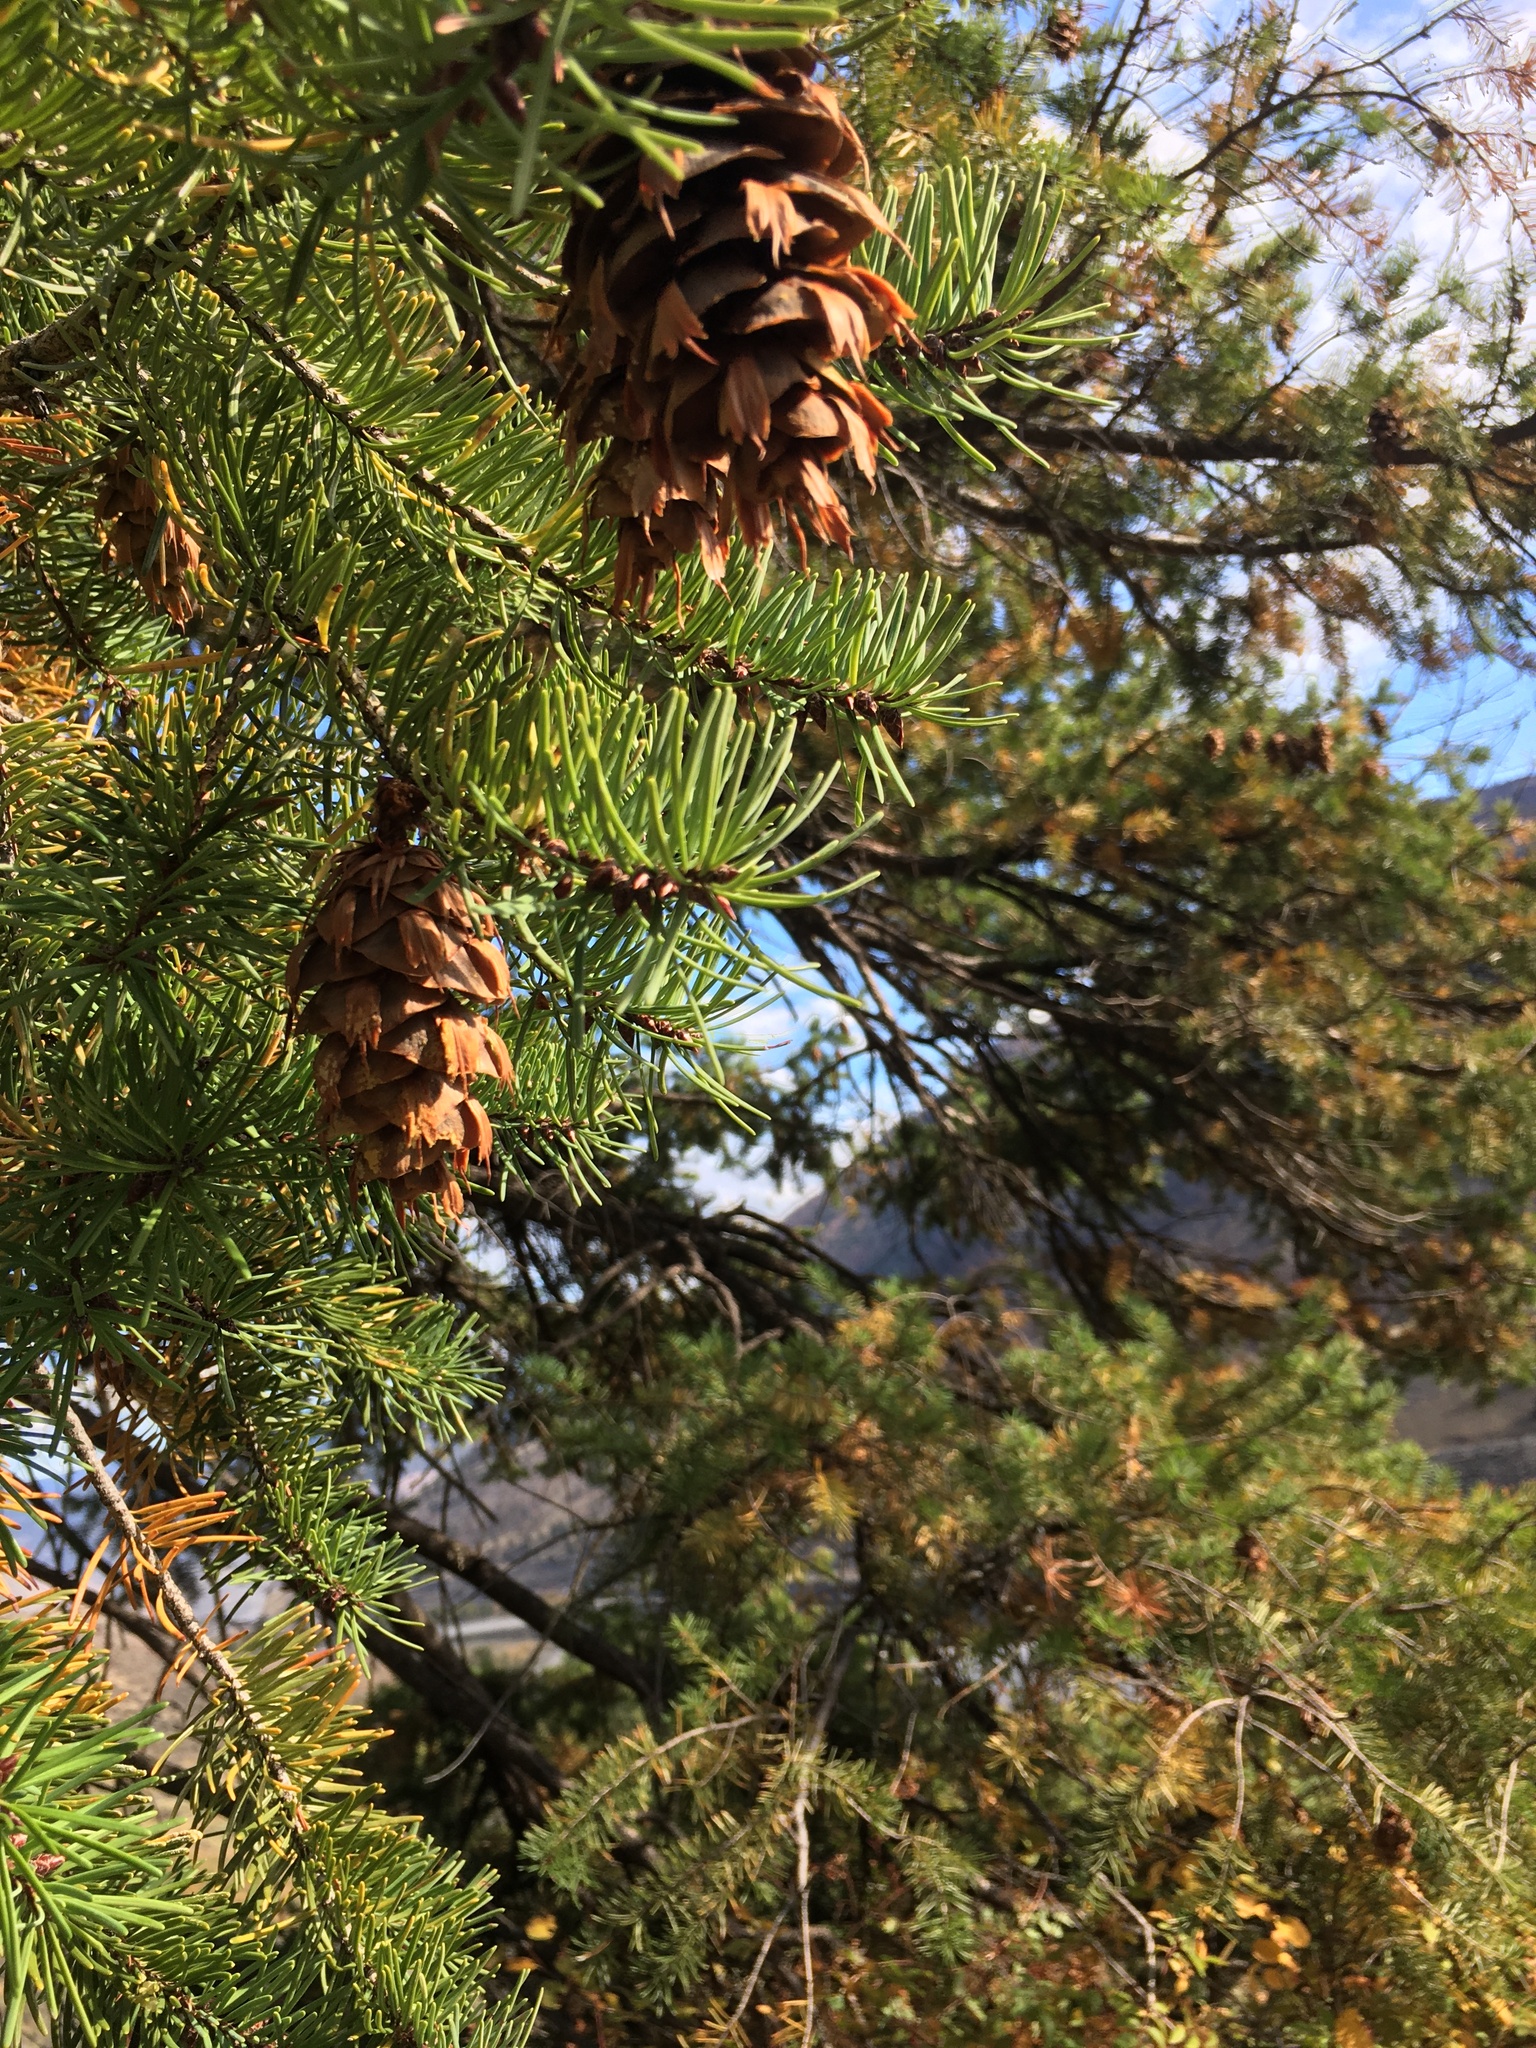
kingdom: Plantae
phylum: Tracheophyta
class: Pinopsida
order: Pinales
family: Pinaceae
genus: Pseudotsuga
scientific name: Pseudotsuga menziesii
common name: Douglas fir
